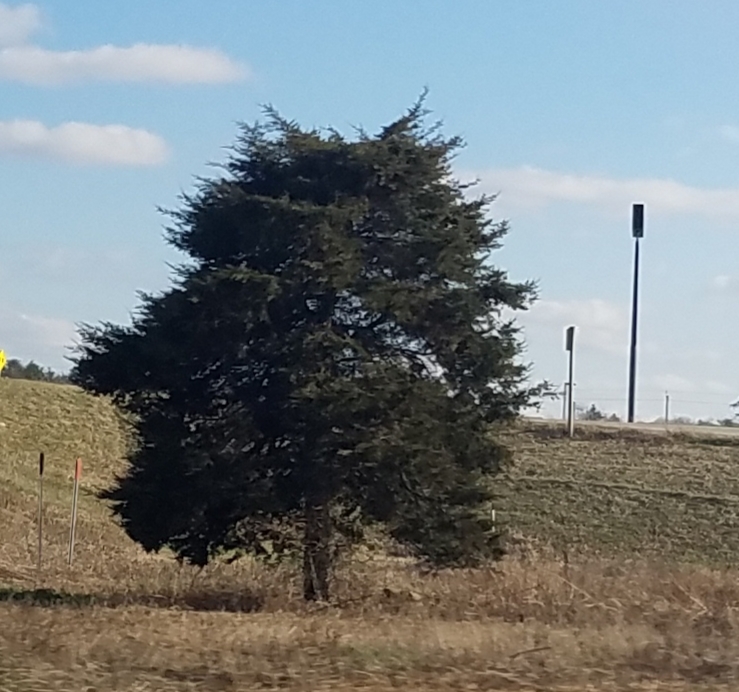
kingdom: Plantae
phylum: Tracheophyta
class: Pinopsida
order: Pinales
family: Cupressaceae
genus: Juniperus
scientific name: Juniperus virginiana
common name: Red juniper
